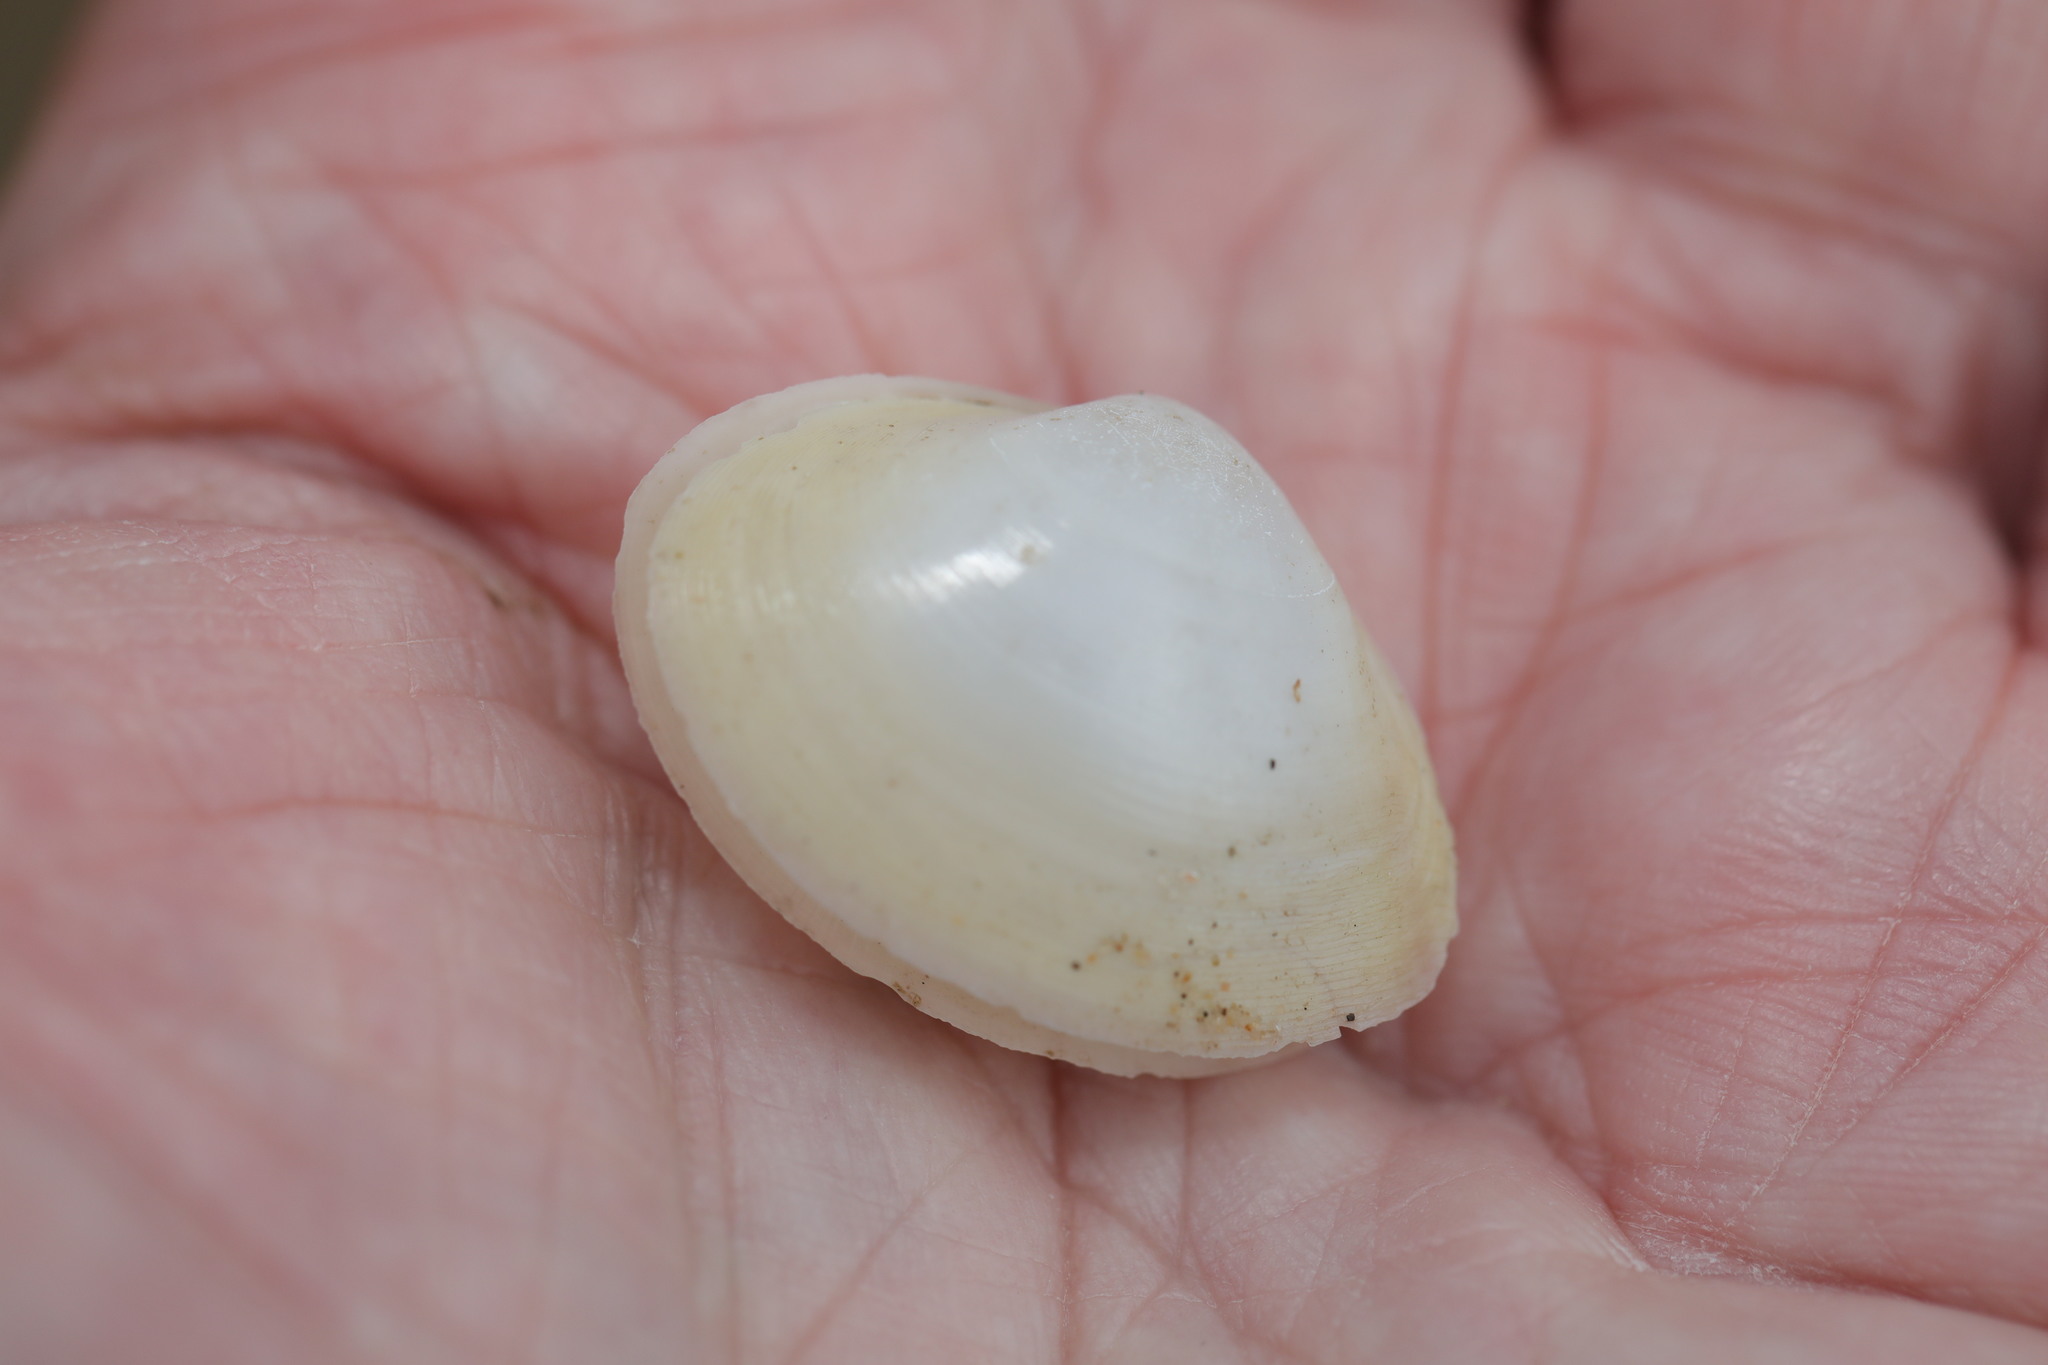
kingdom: Animalia
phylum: Mollusca
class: Bivalvia
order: Venerida
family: Mactridae
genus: Mactra
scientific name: Mactra stultorum
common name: Rayed trough shell
